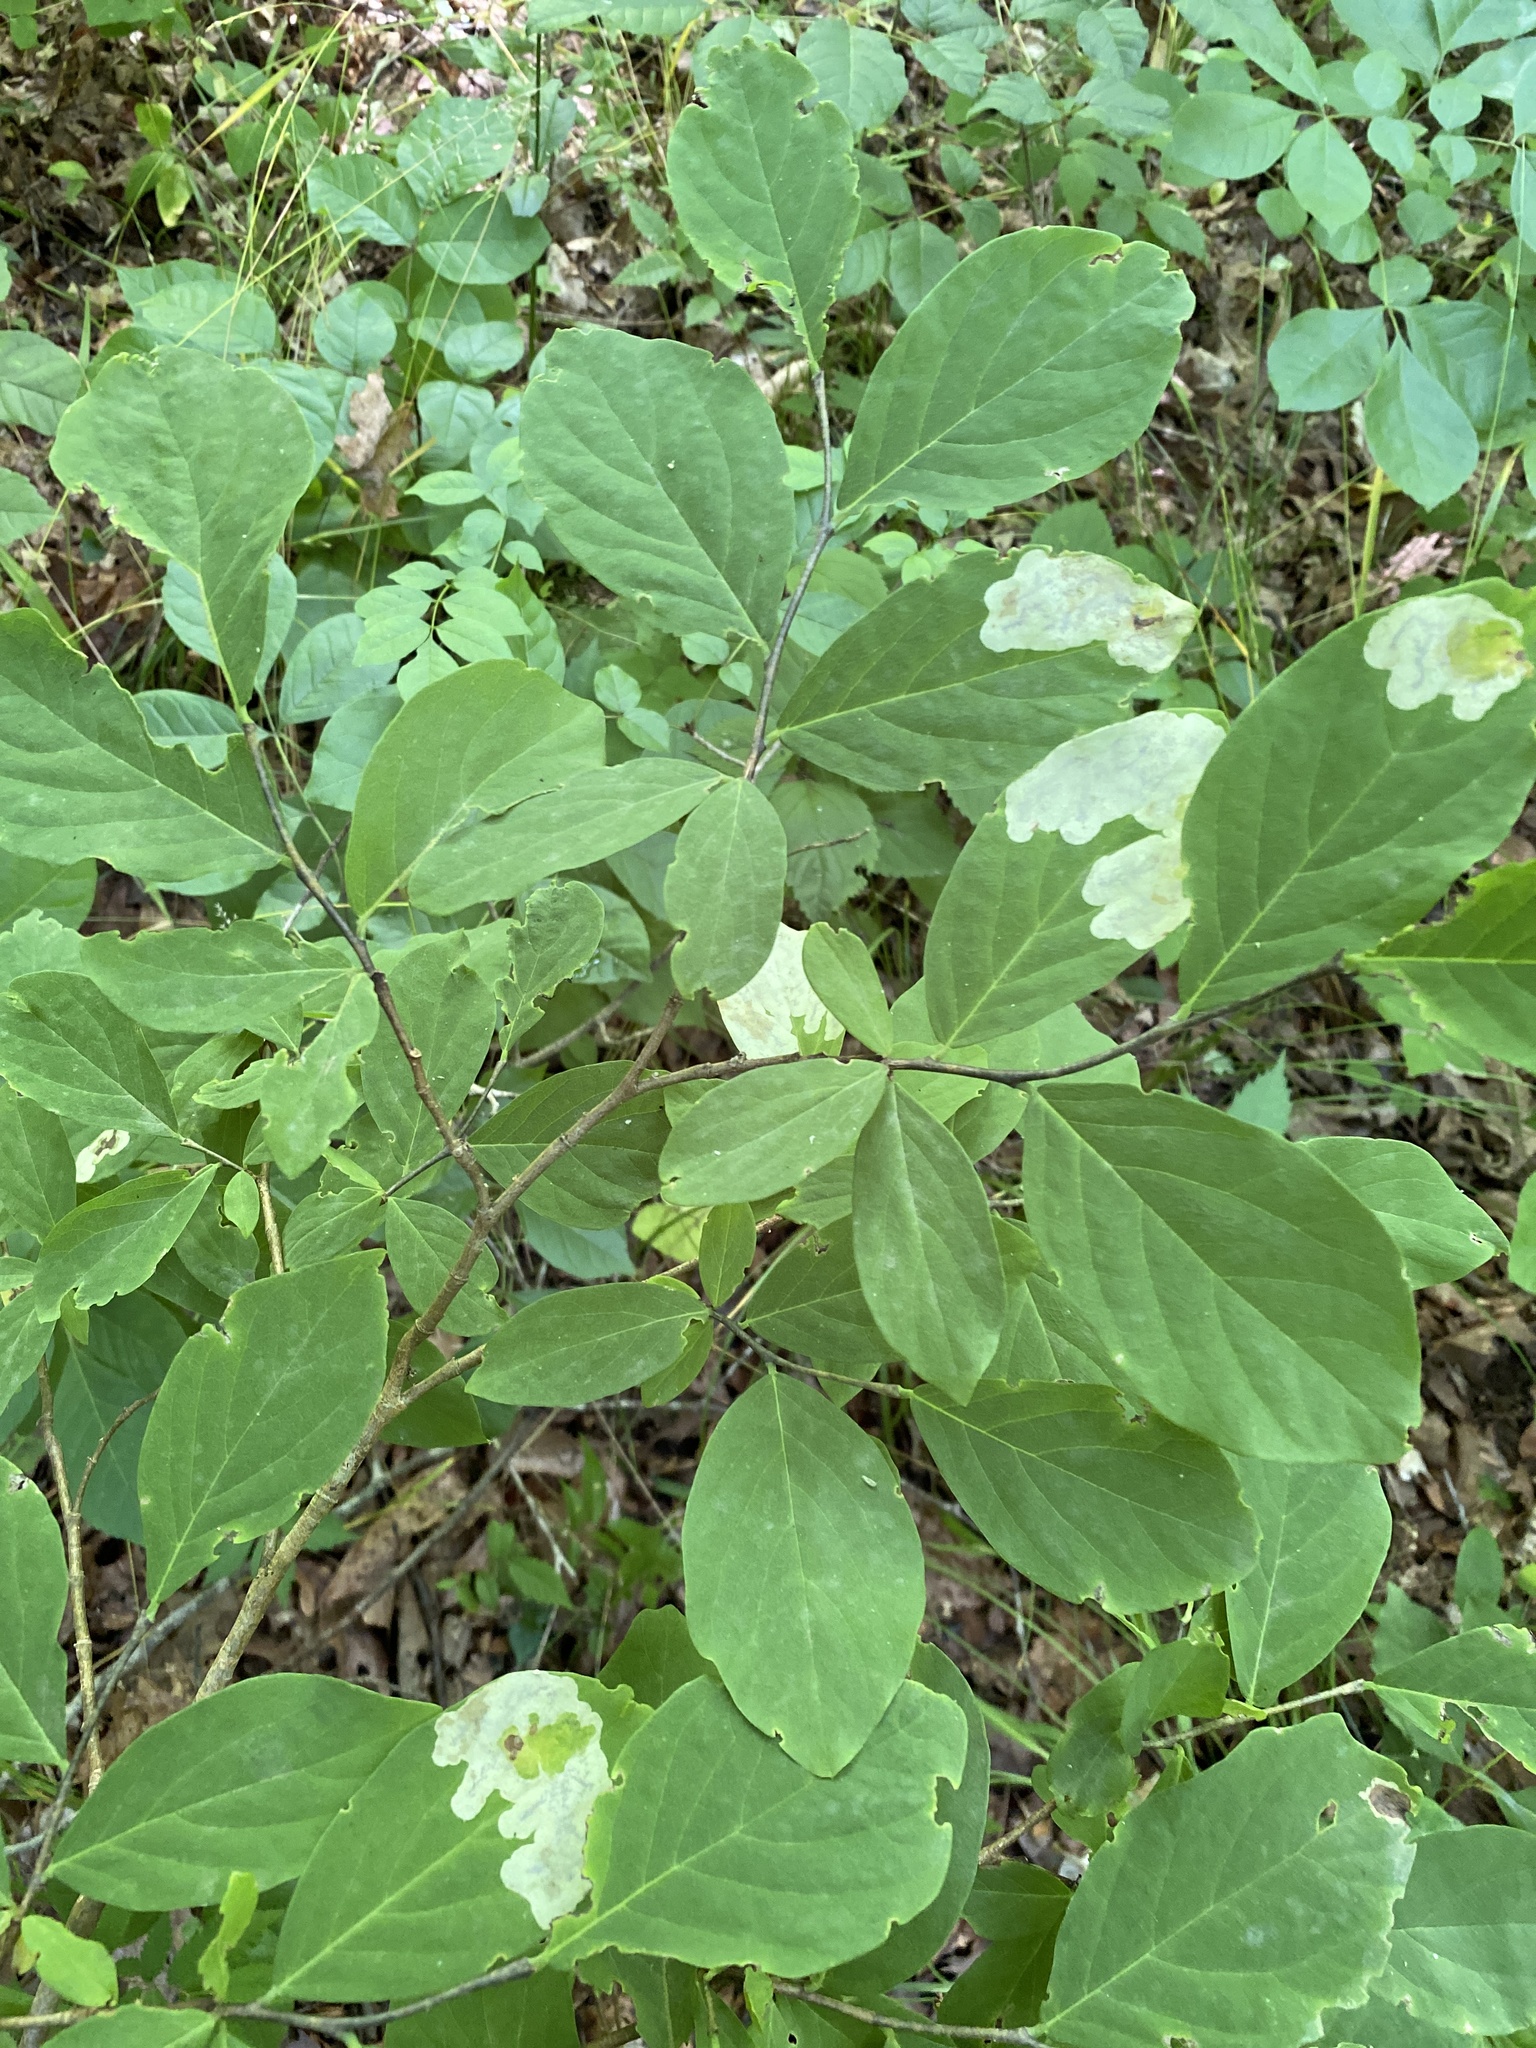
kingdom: Plantae
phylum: Tracheophyta
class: Magnoliopsida
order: Malvales
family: Thymelaeaceae
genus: Dirca
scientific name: Dirca palustris
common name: Leatherwood
